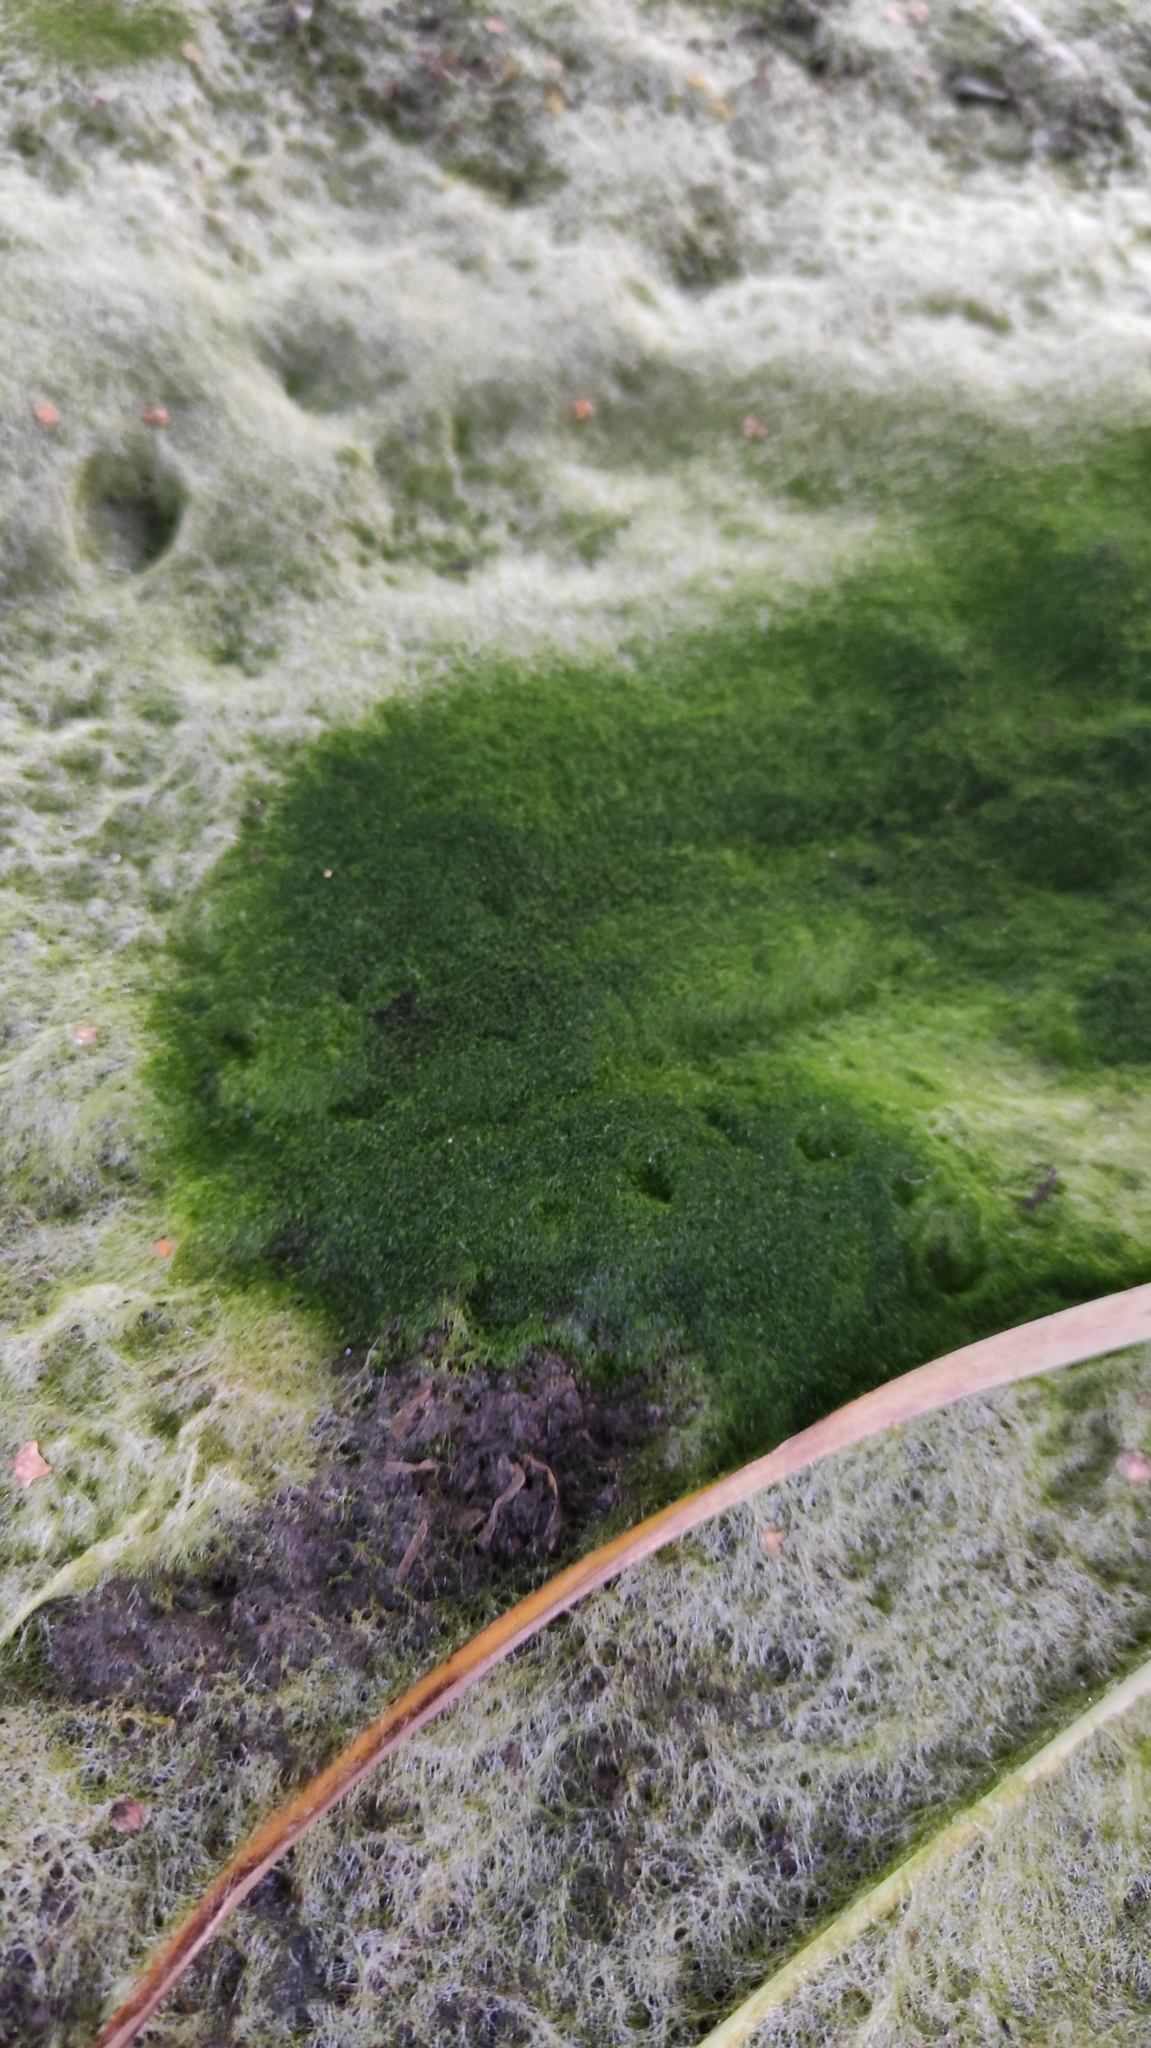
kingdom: Chromista
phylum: Ochrophyta
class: Xanthophyceae
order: Vaucheriales
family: Vaucheriaceae
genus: Vaucheria
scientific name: Vaucheria
